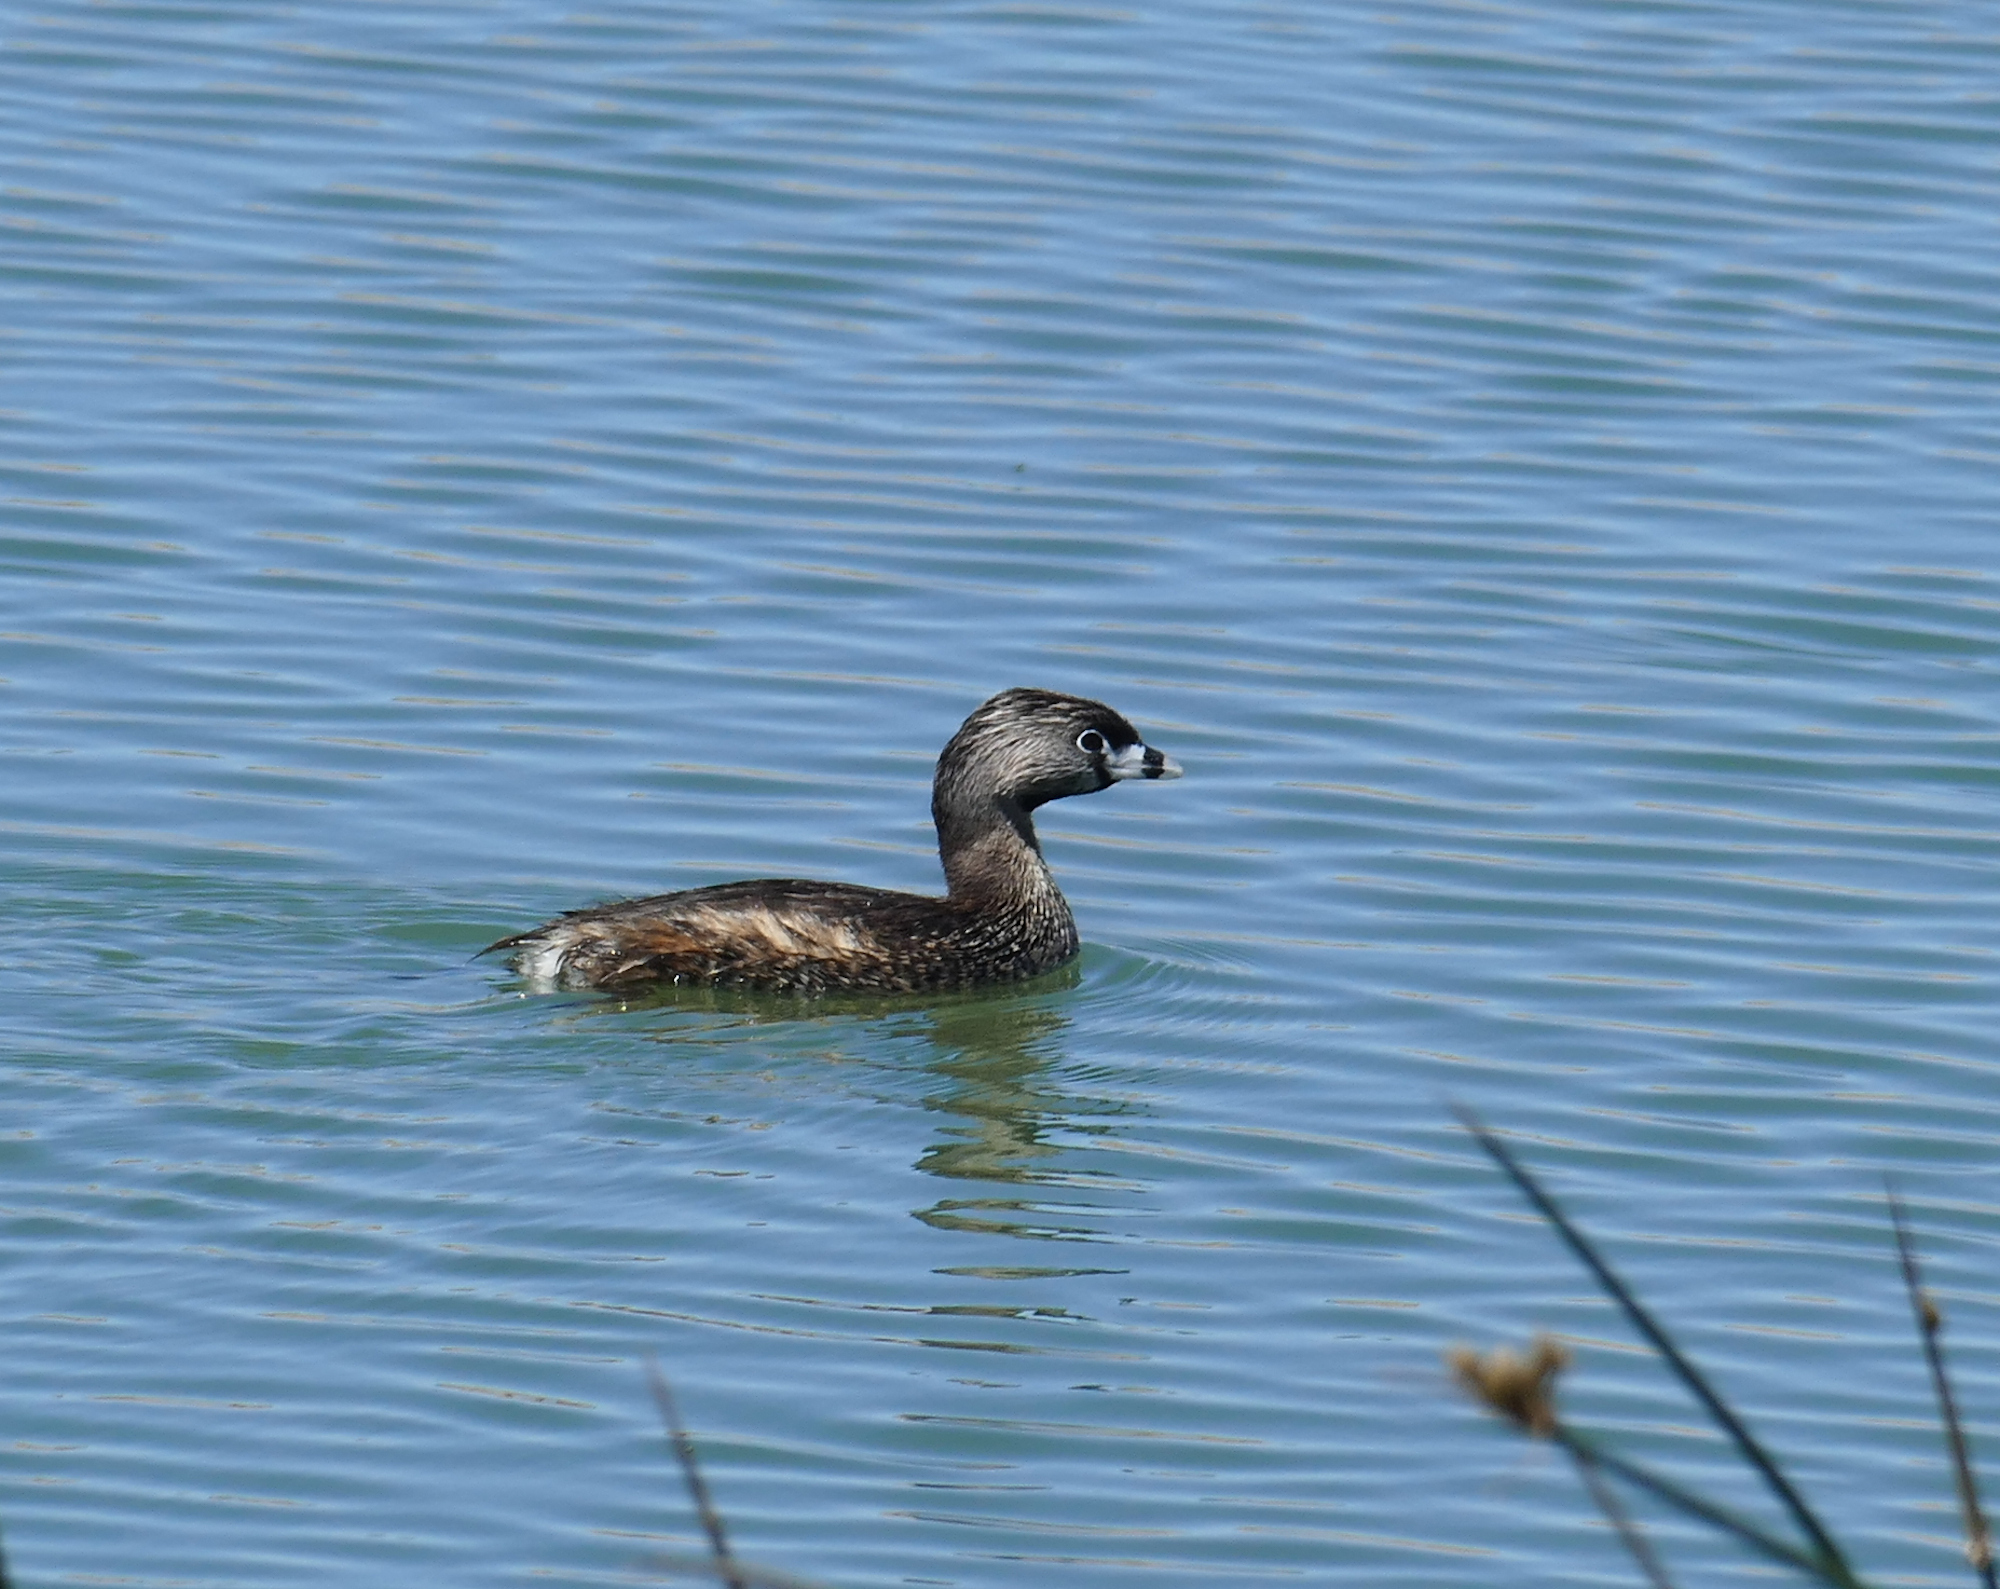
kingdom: Animalia
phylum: Chordata
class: Aves
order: Podicipediformes
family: Podicipedidae
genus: Podilymbus
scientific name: Podilymbus podiceps
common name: Pied-billed grebe
